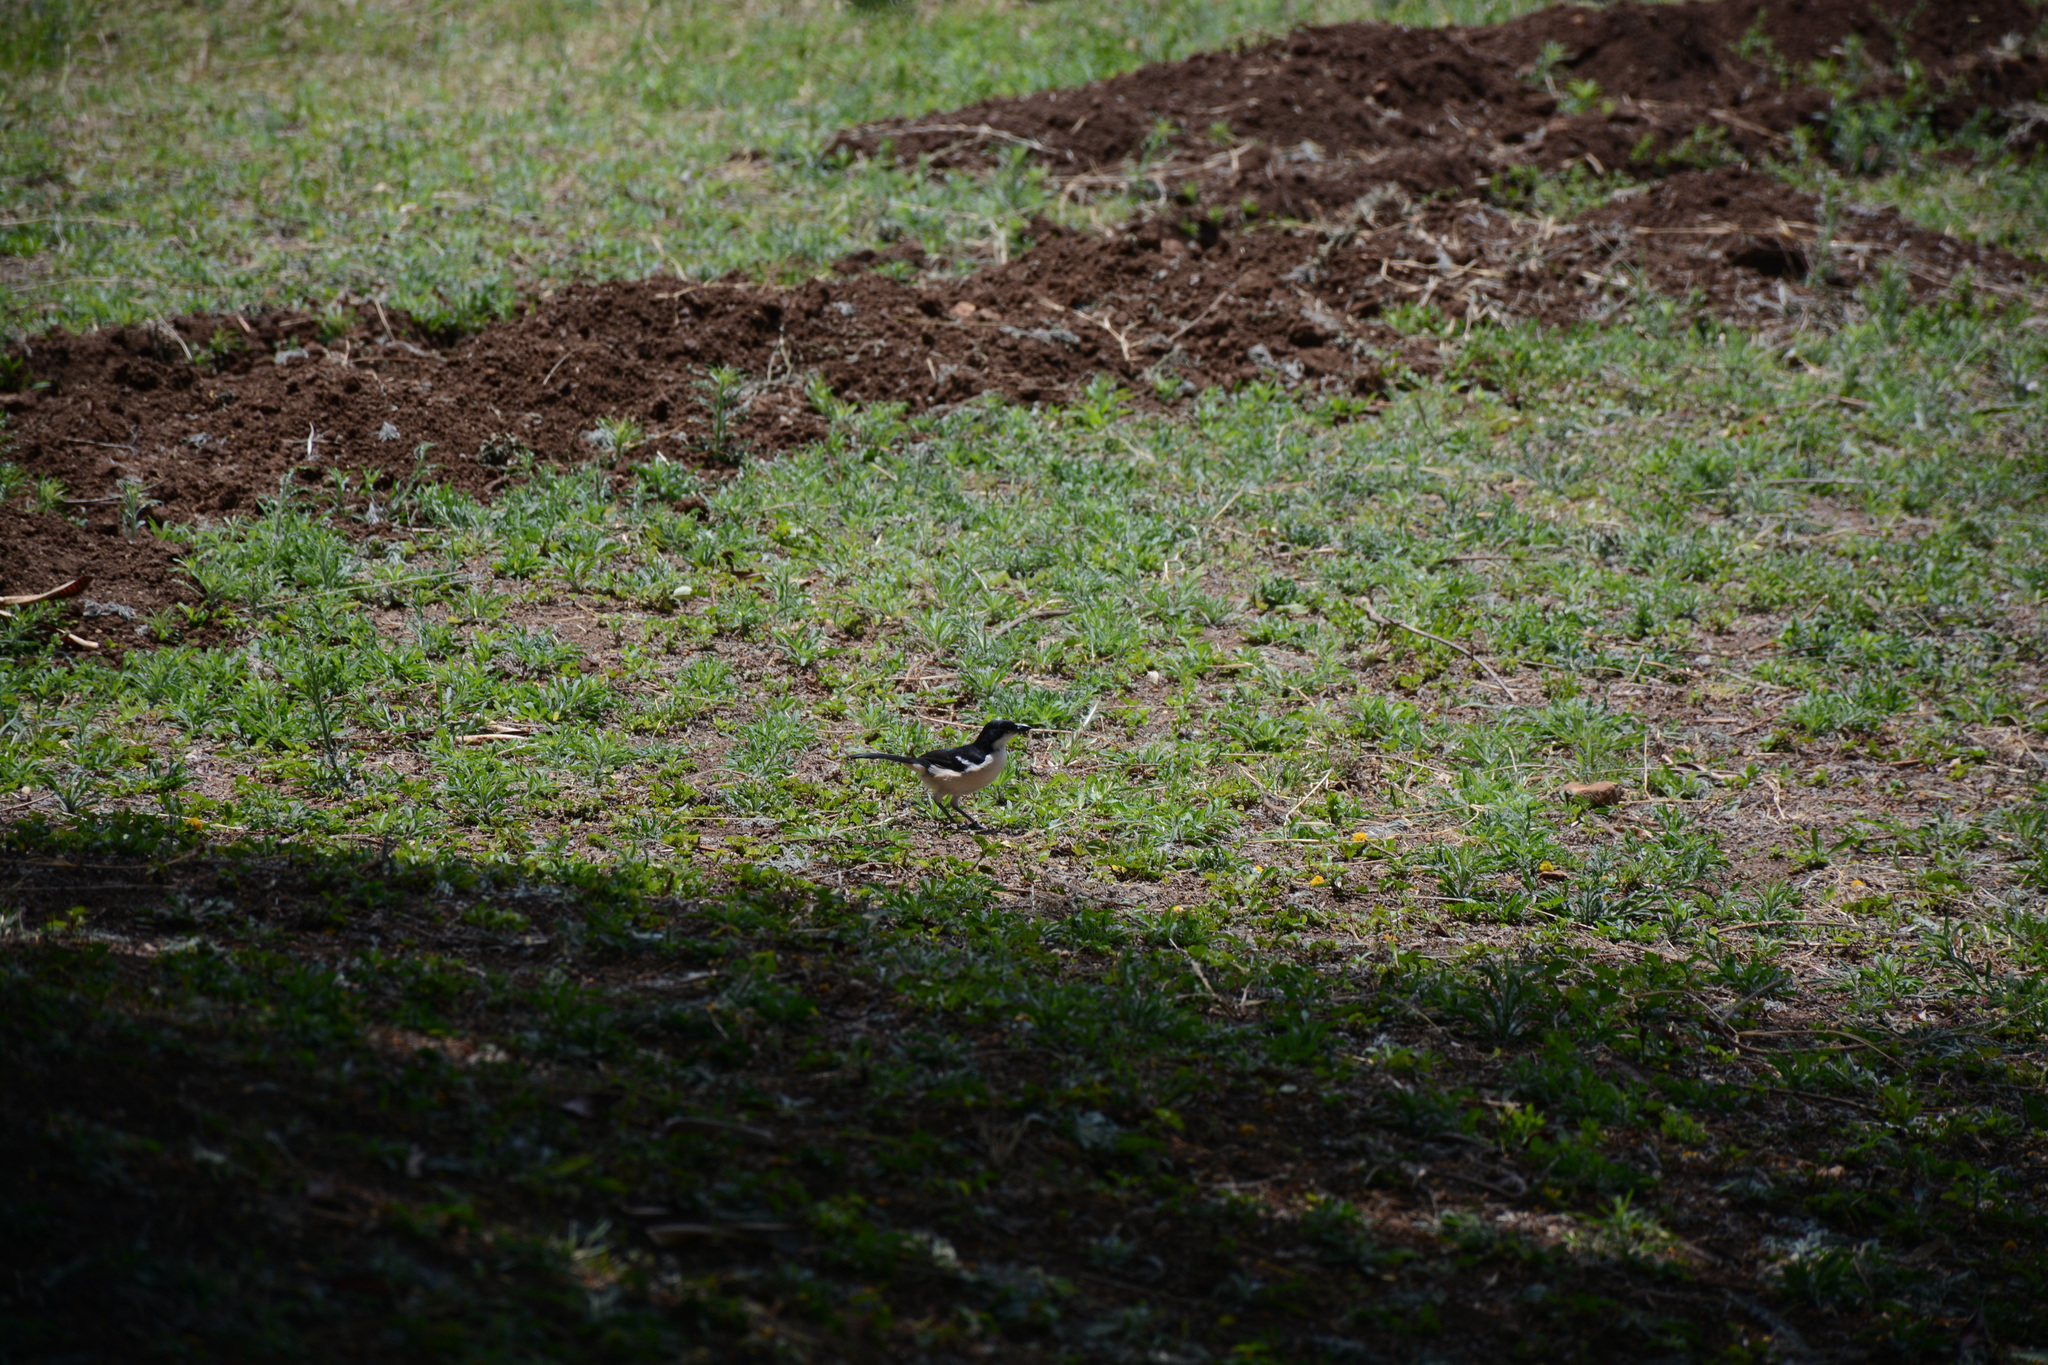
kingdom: Animalia
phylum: Chordata
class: Aves
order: Passeriformes
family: Malaconotidae
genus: Laniarius
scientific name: Laniarius major
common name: Tropical boubou
